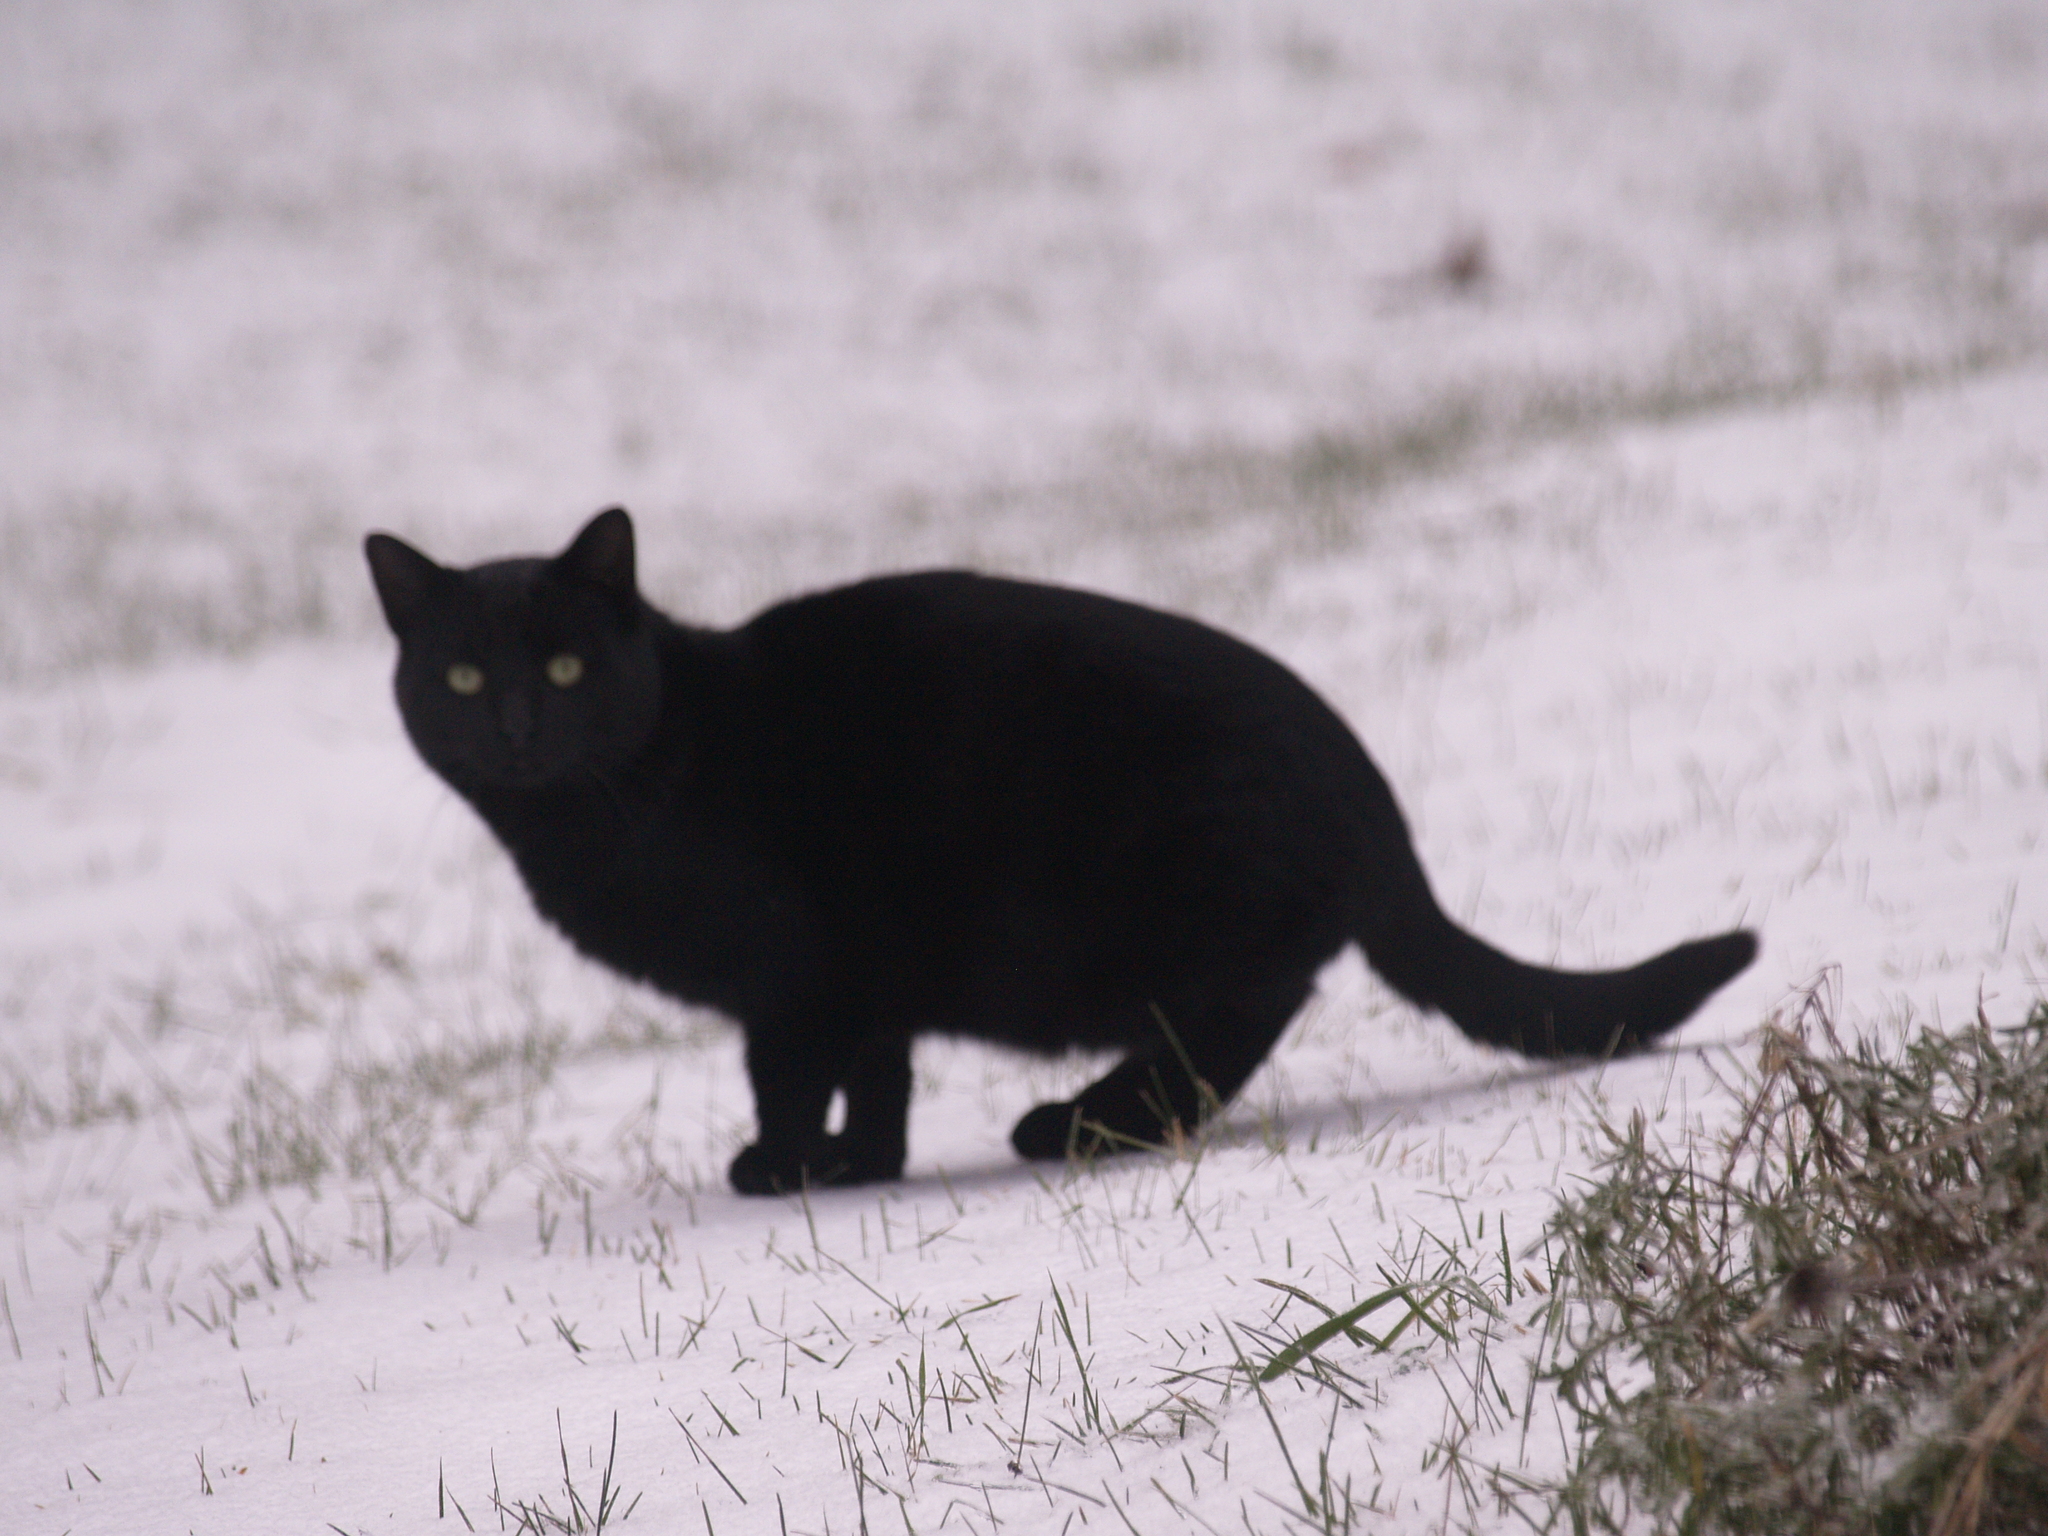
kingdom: Animalia
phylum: Chordata
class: Mammalia
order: Carnivora
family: Felidae
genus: Felis
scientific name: Felis catus
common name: Domestic cat
